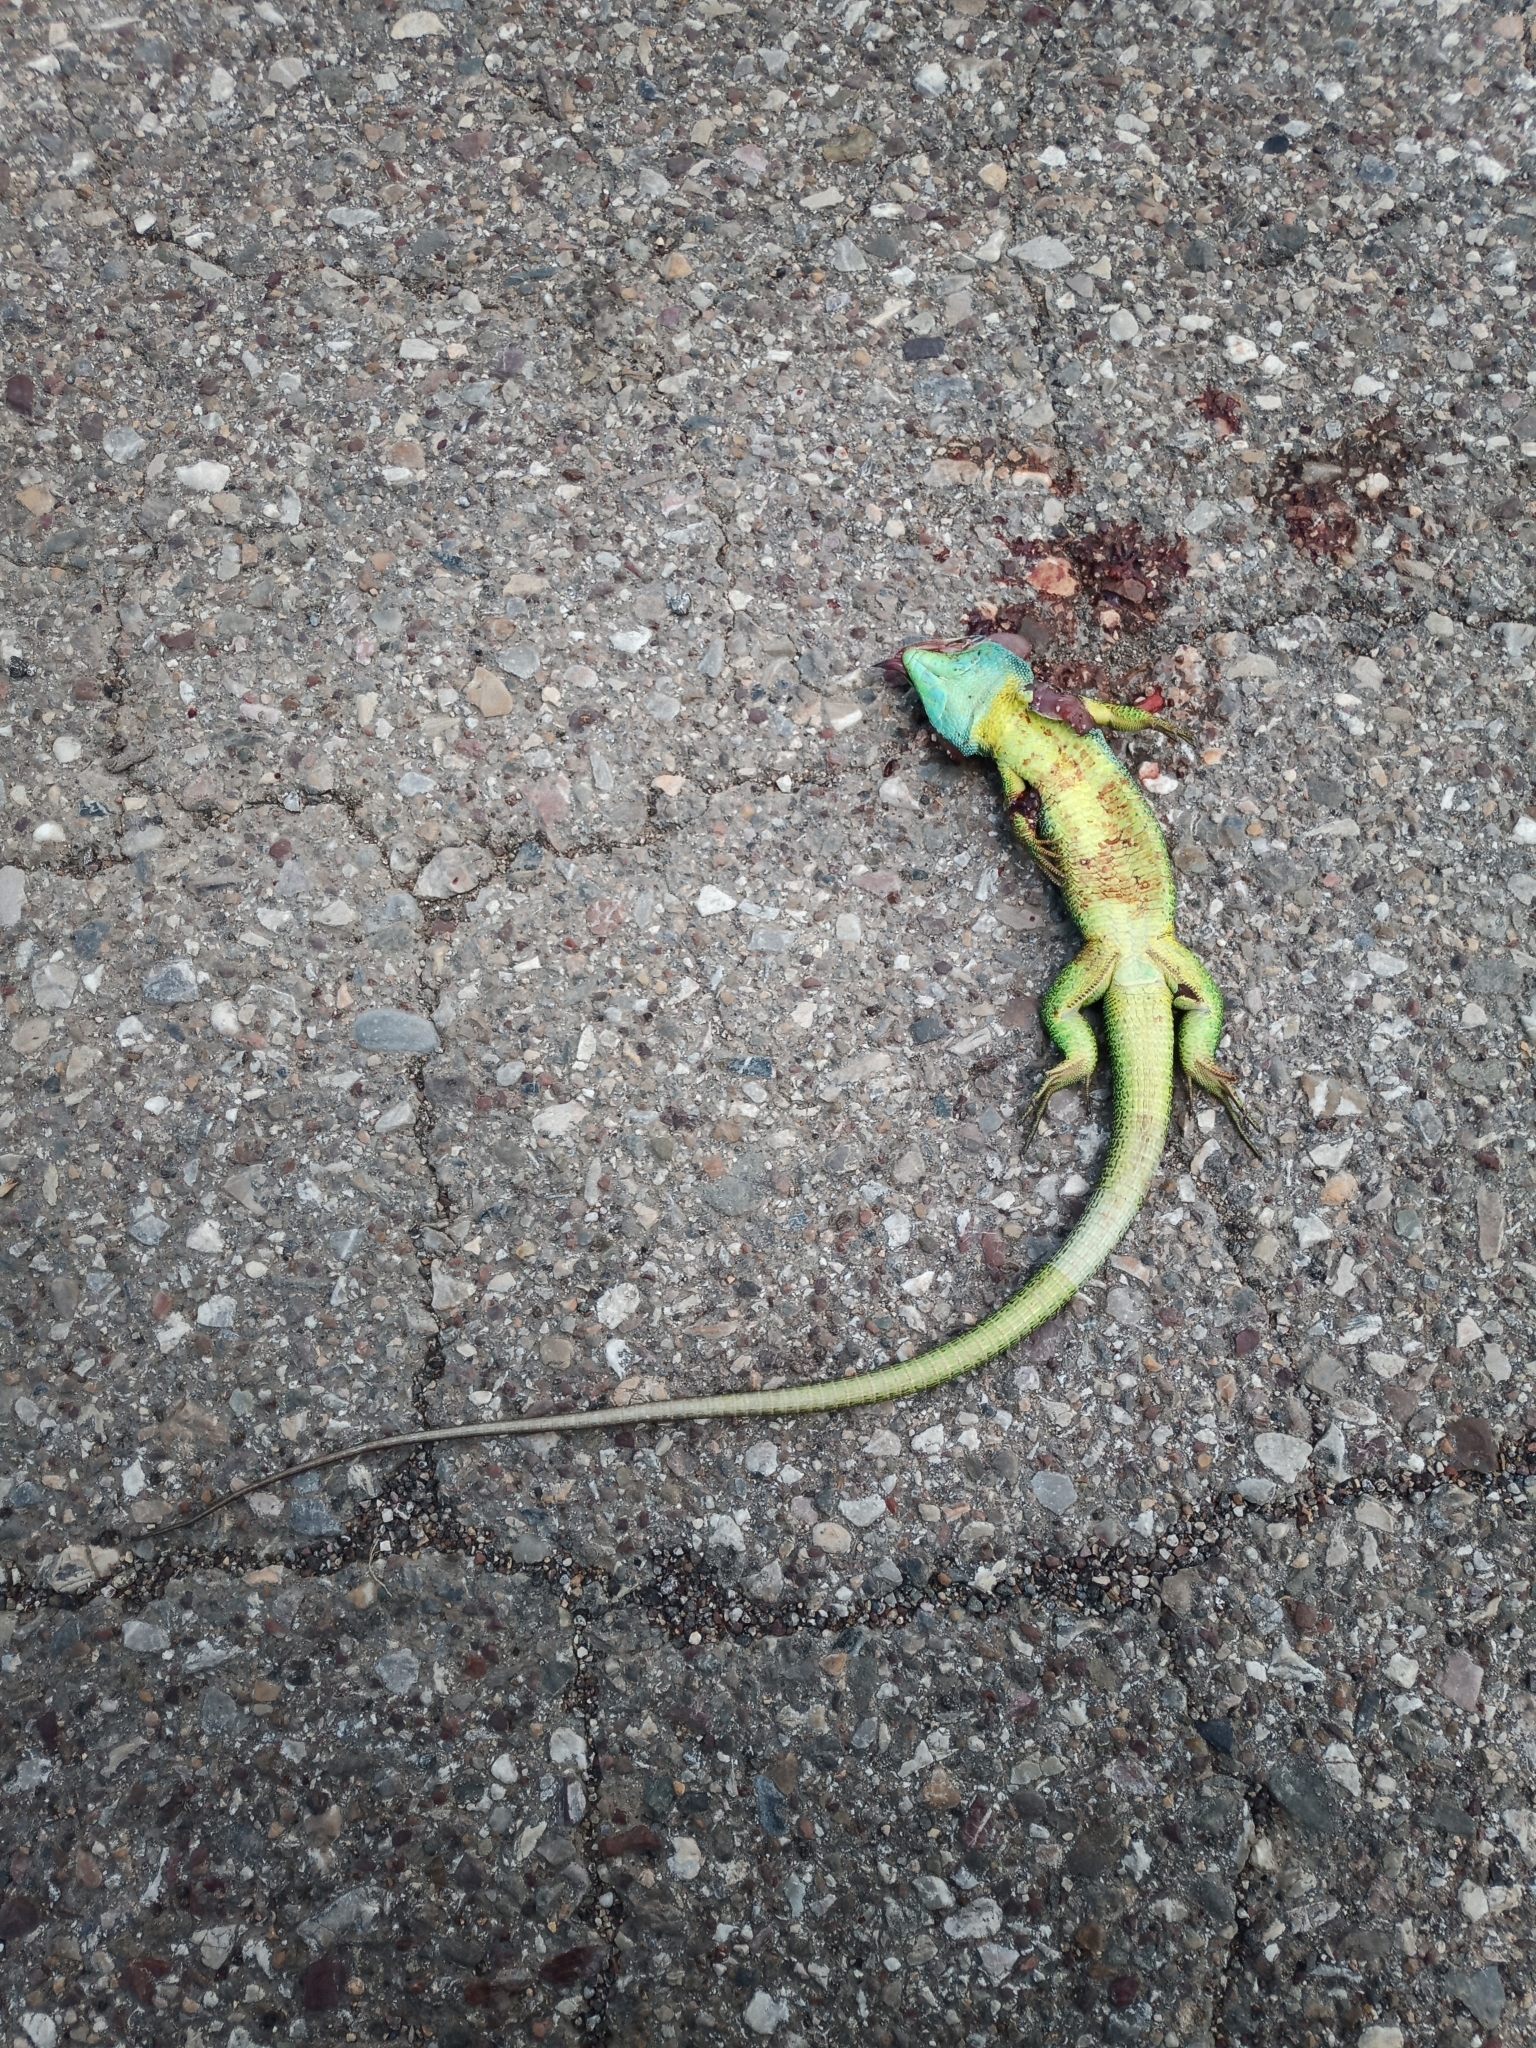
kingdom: Animalia
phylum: Chordata
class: Squamata
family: Lacertidae
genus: Lacerta
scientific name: Lacerta trilineata
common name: Balkan green lizard
